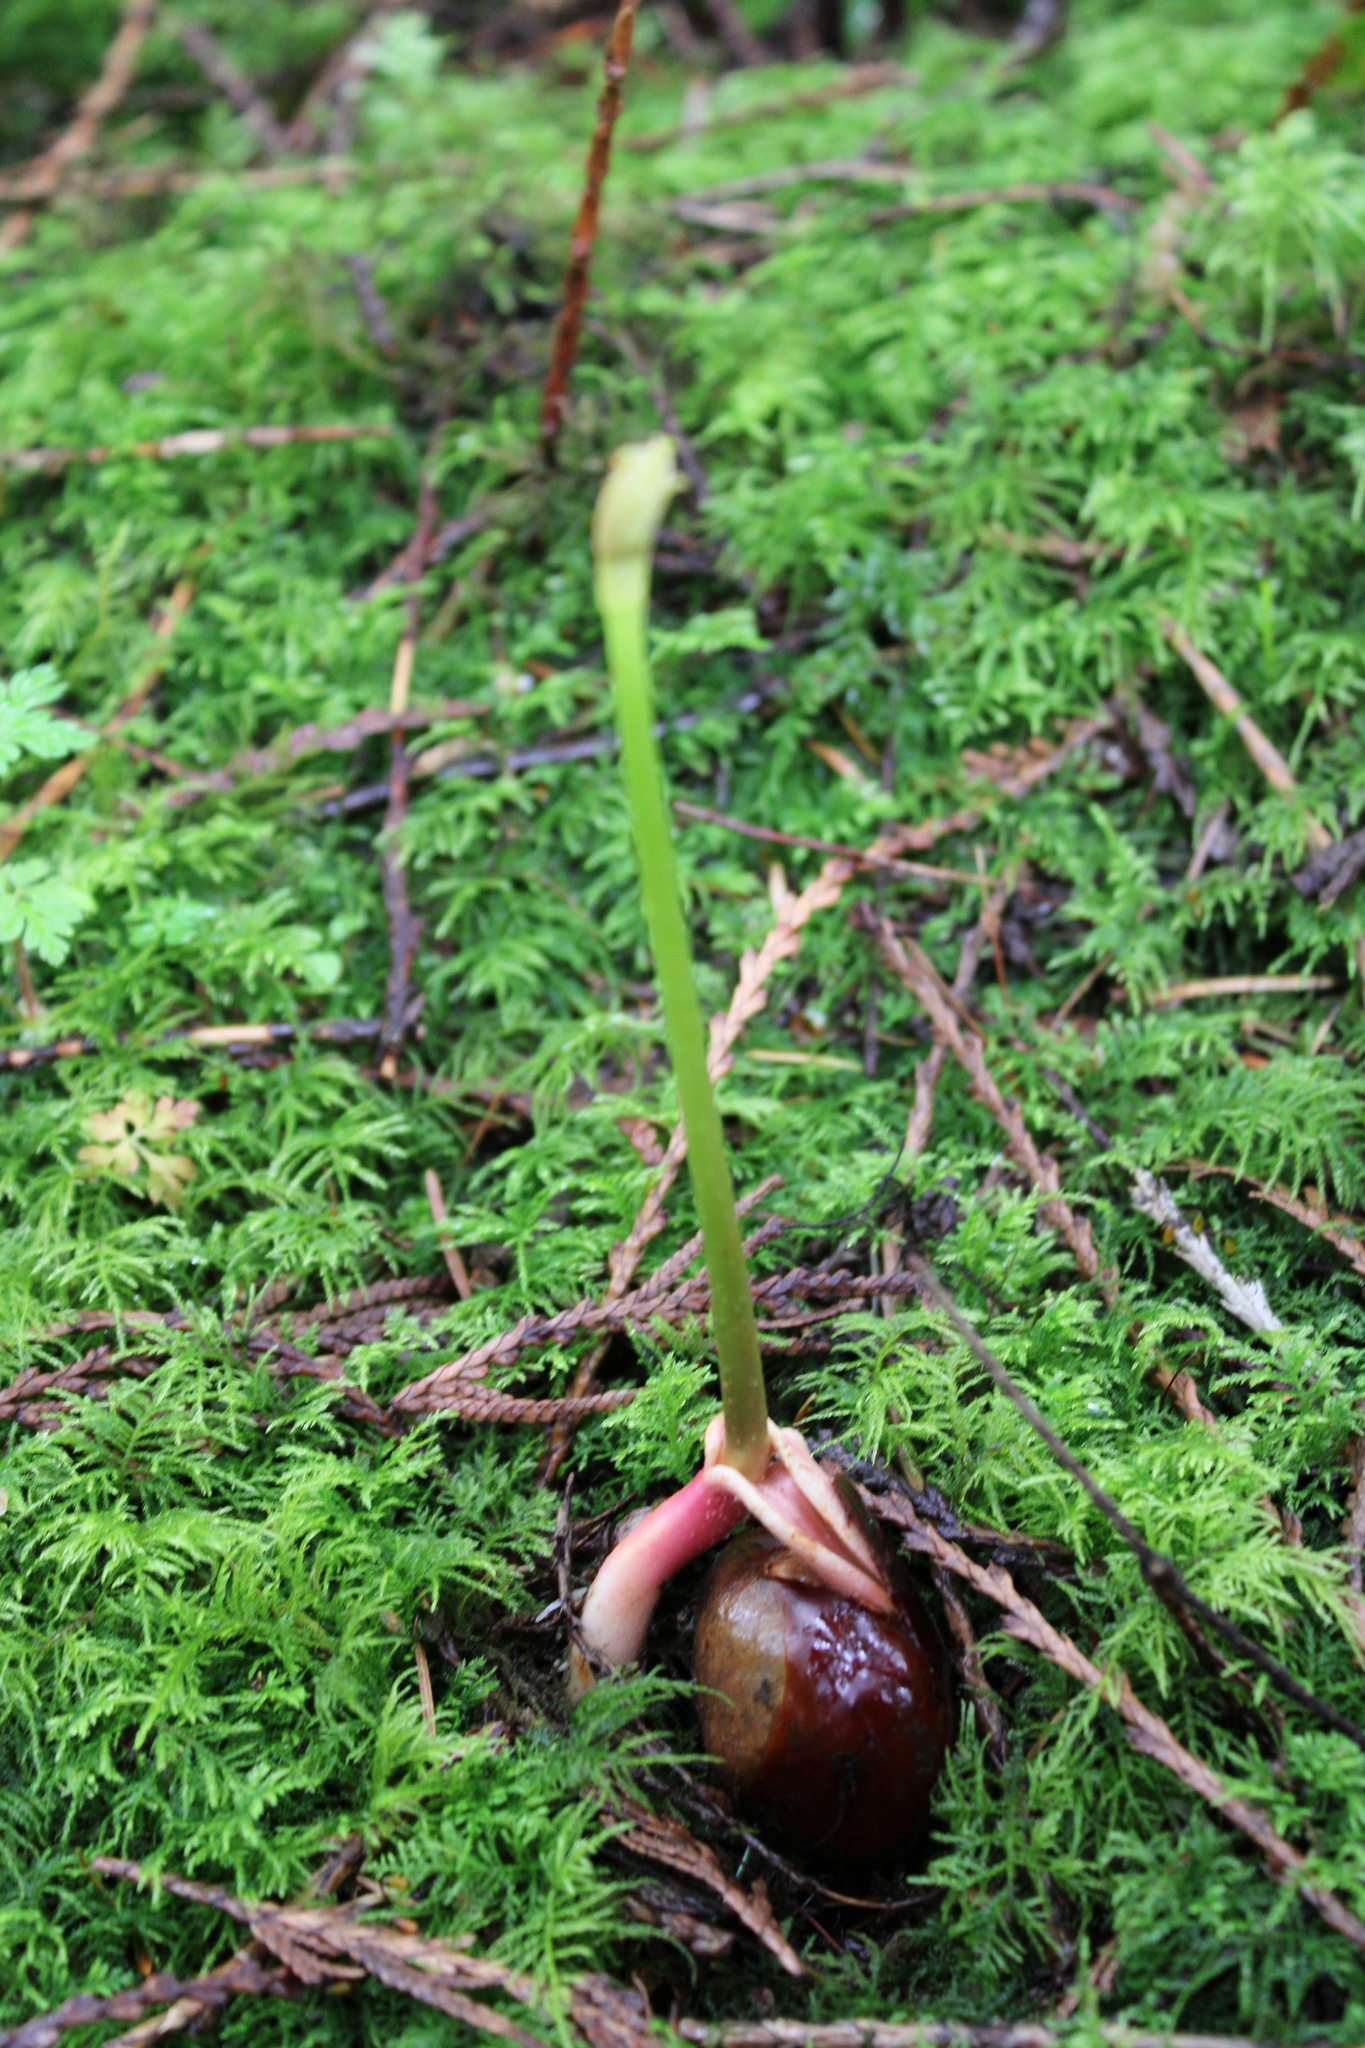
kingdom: Plantae
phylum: Tracheophyta
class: Magnoliopsida
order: Sapindales
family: Sapindaceae
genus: Aesculus
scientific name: Aesculus hippocastanum
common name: Horse-chestnut
